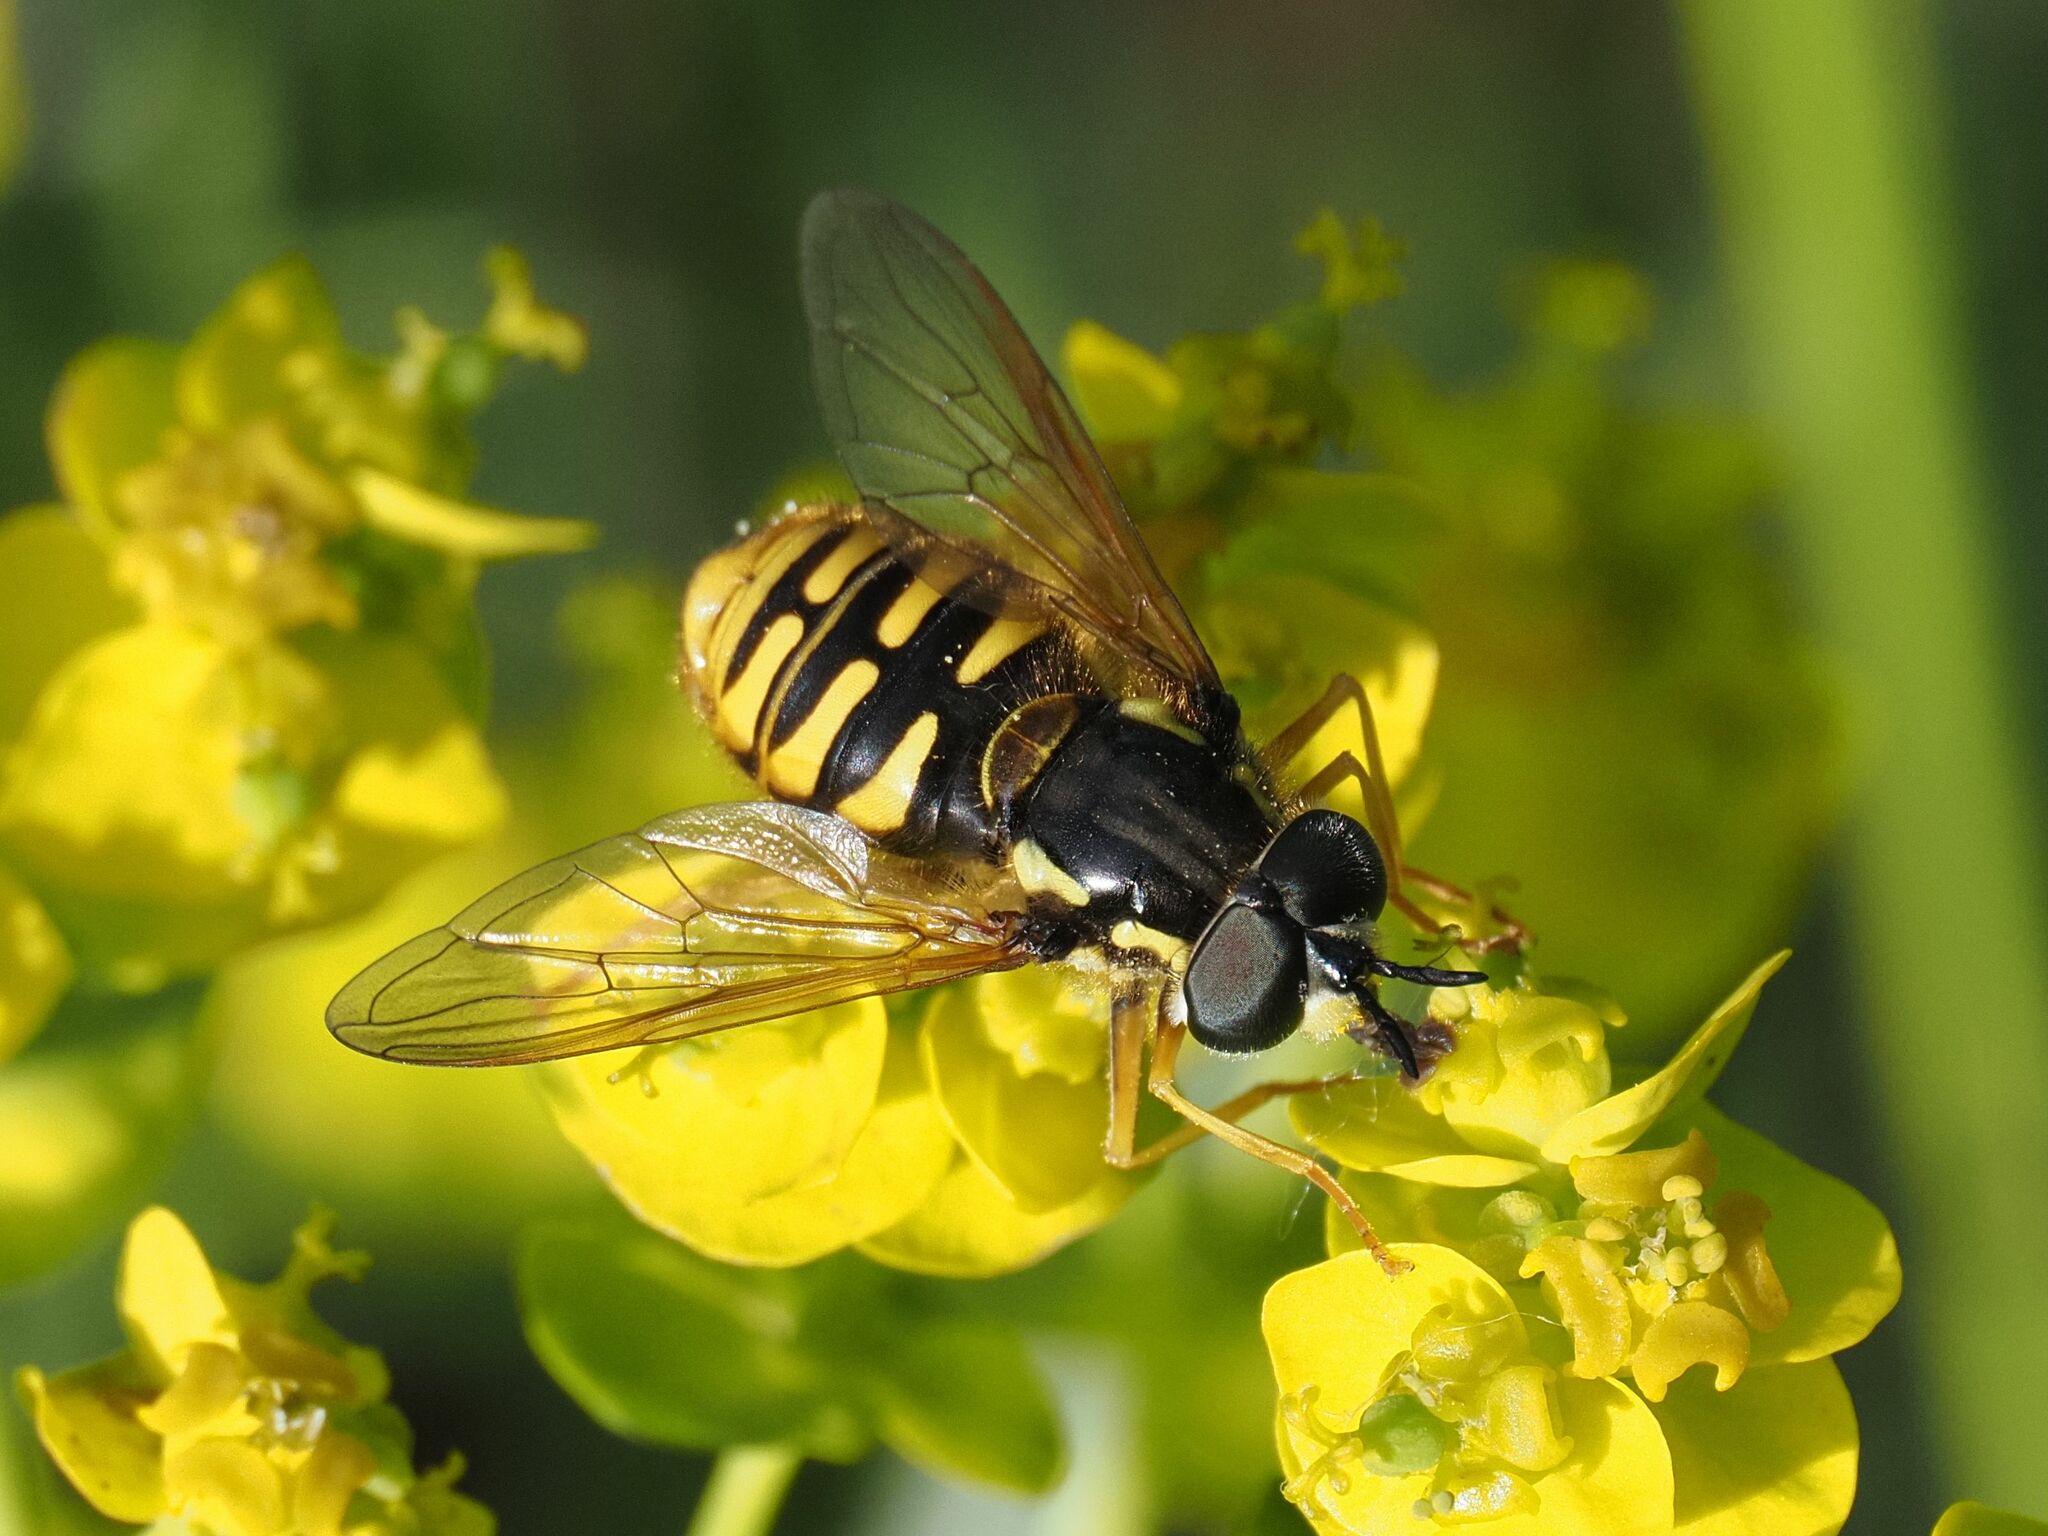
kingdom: Animalia
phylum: Arthropoda
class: Insecta
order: Diptera
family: Syrphidae
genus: Chrysotoxum
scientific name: Chrysotoxum cautum
